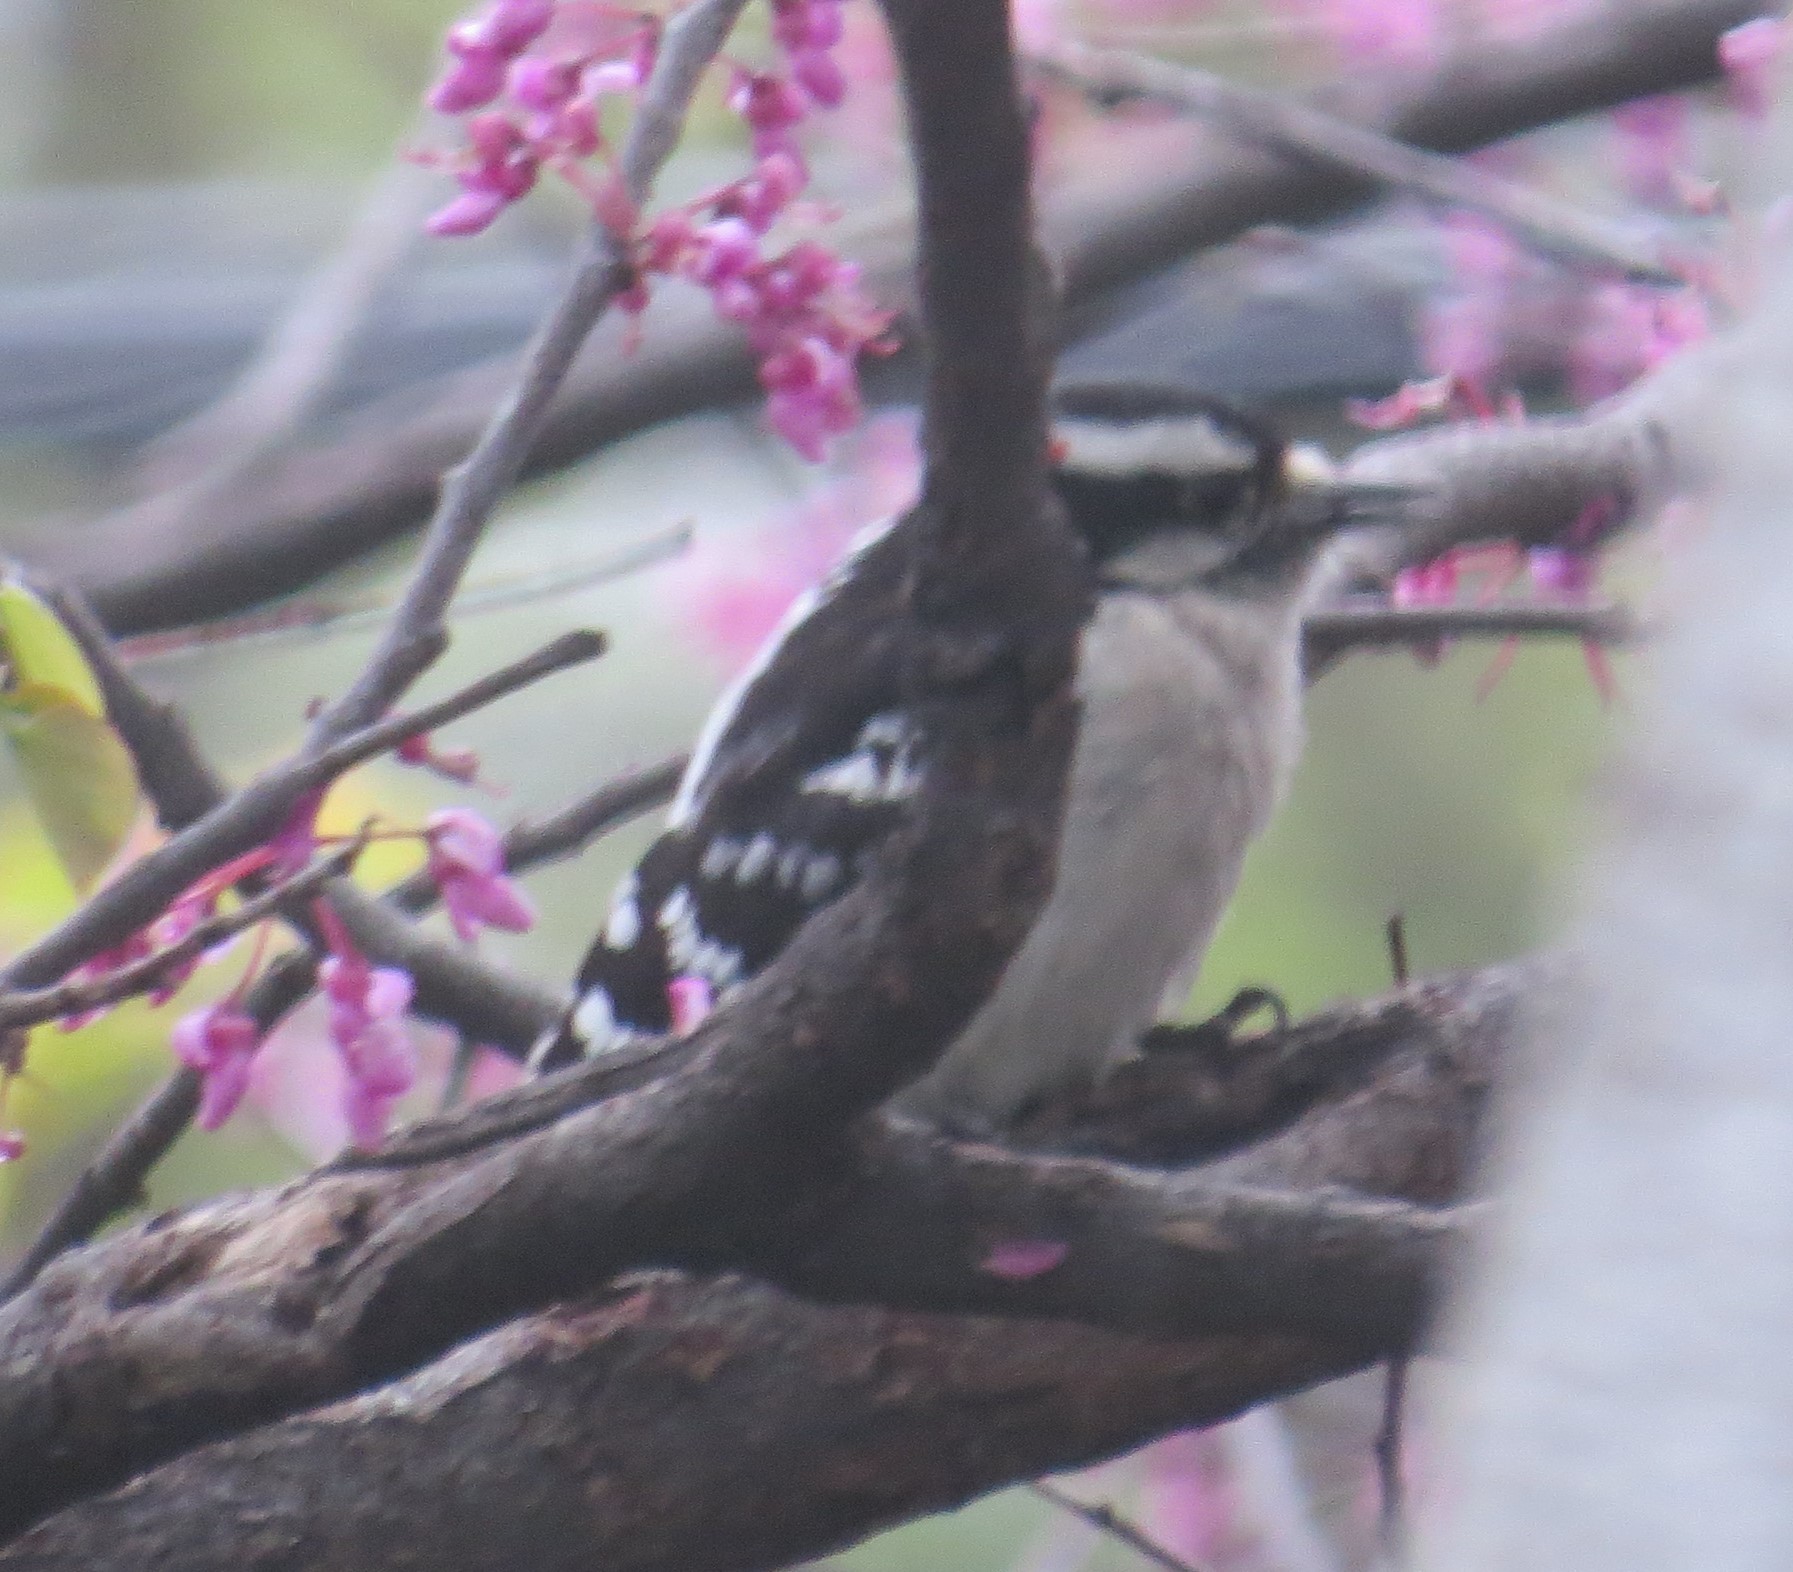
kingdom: Animalia
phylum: Chordata
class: Aves
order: Piciformes
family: Picidae
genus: Dryobates
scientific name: Dryobates pubescens
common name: Downy woodpecker
